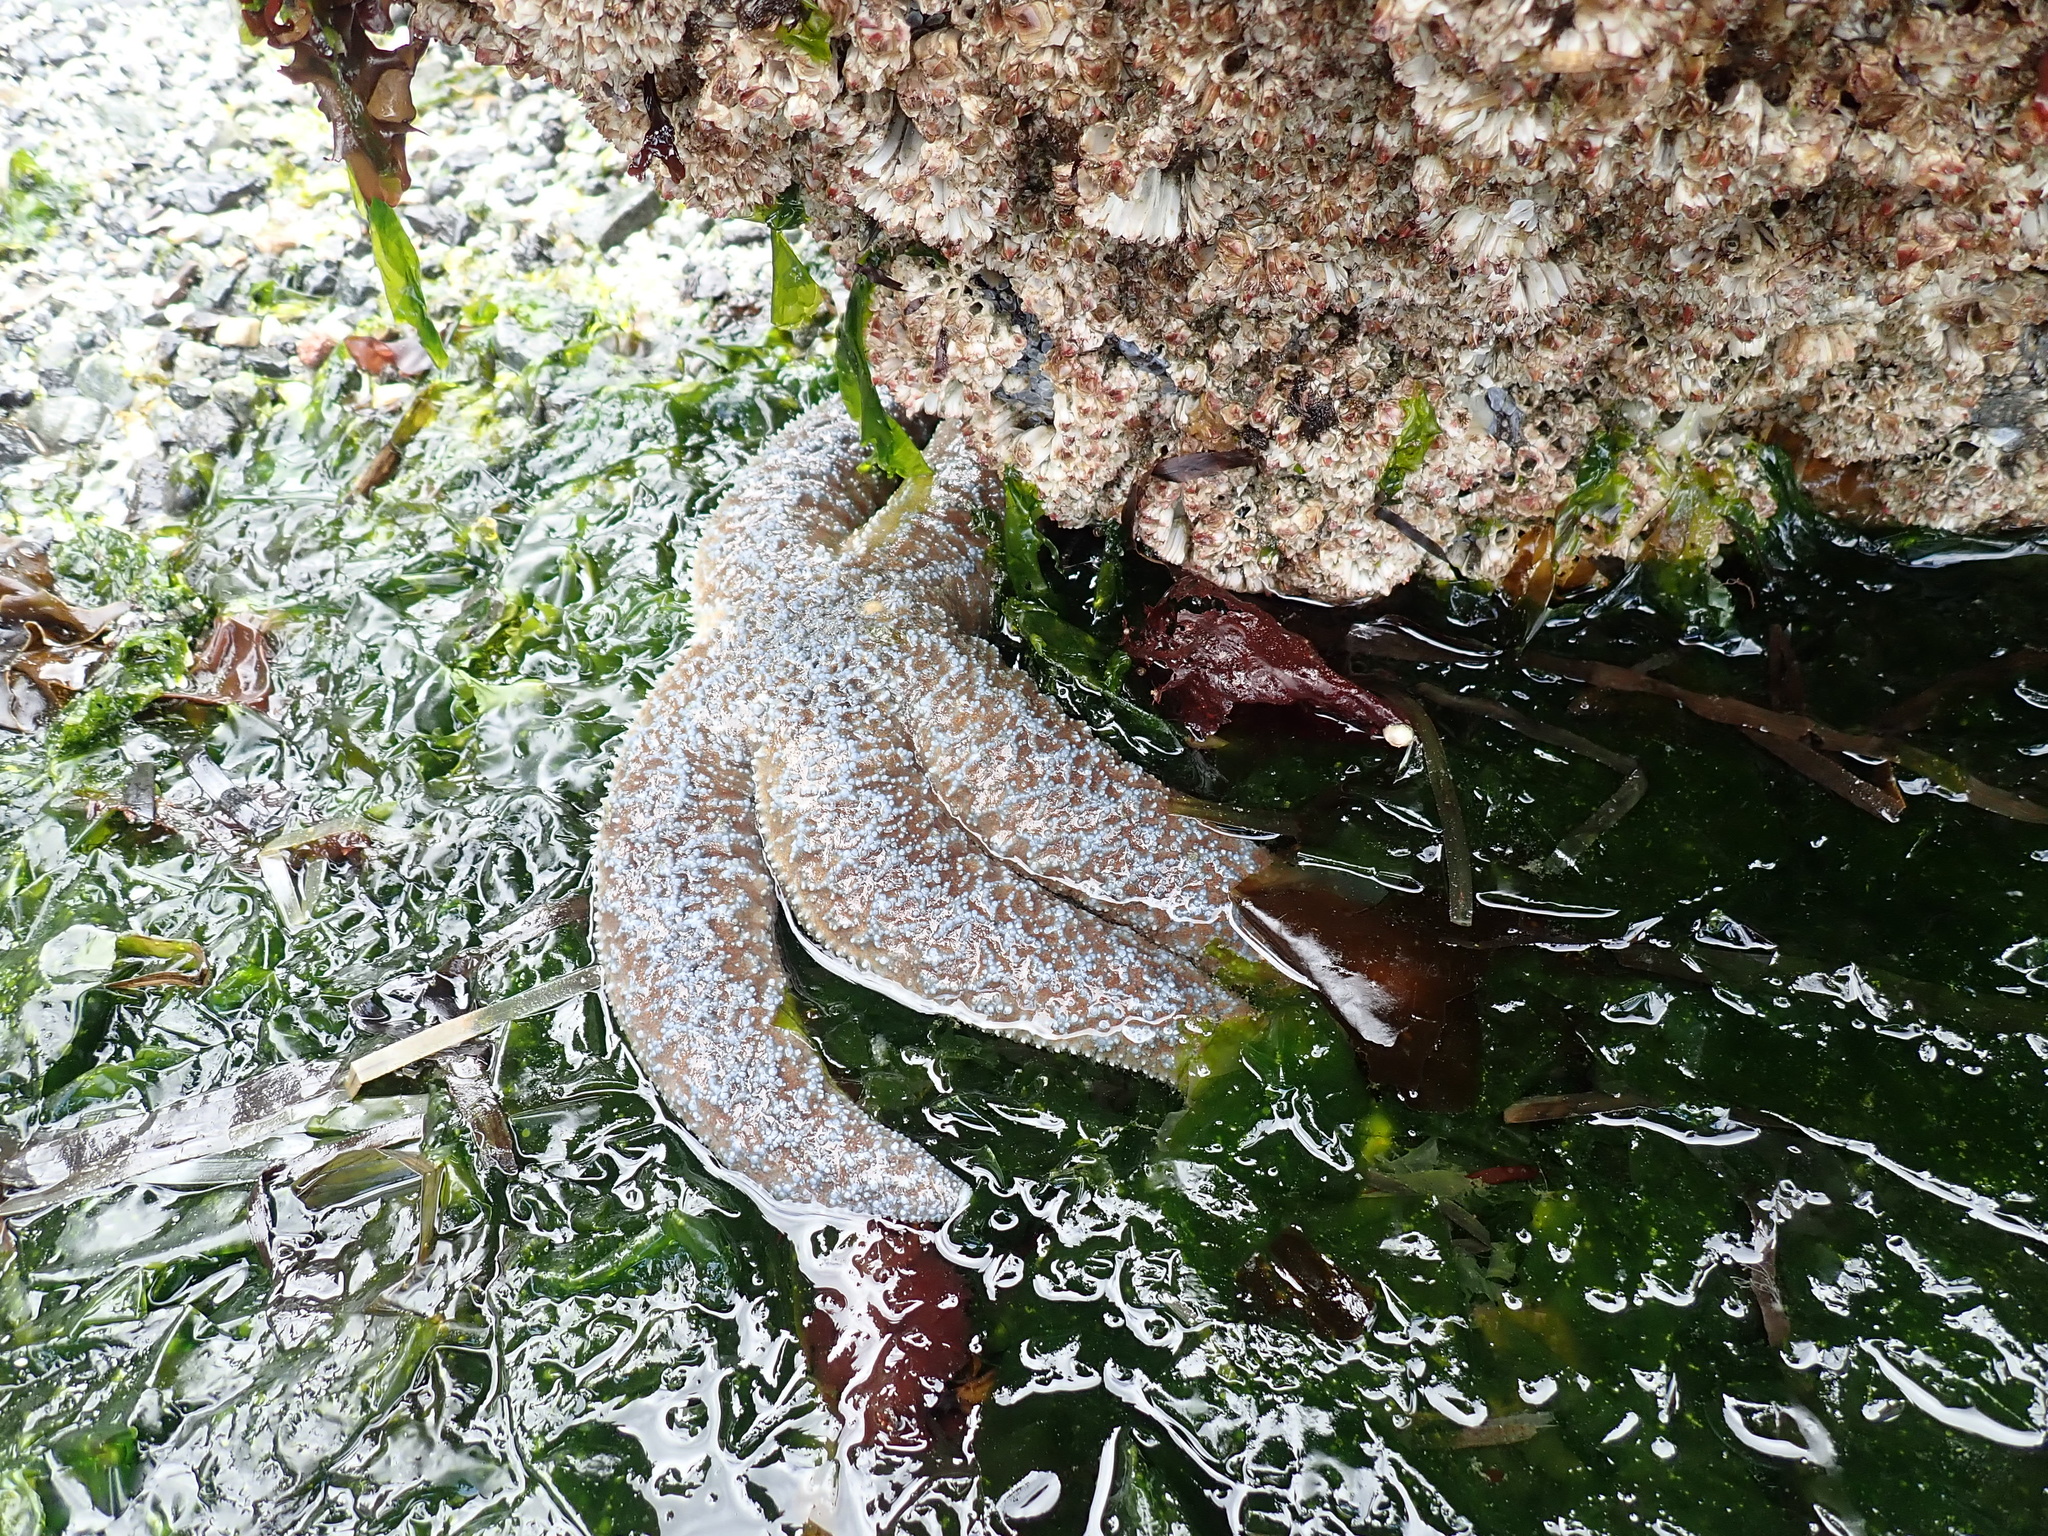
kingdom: Animalia
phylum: Echinodermata
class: Asteroidea
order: Forcipulatida
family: Asteriidae
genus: Evasterias
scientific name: Evasterias troschelii
